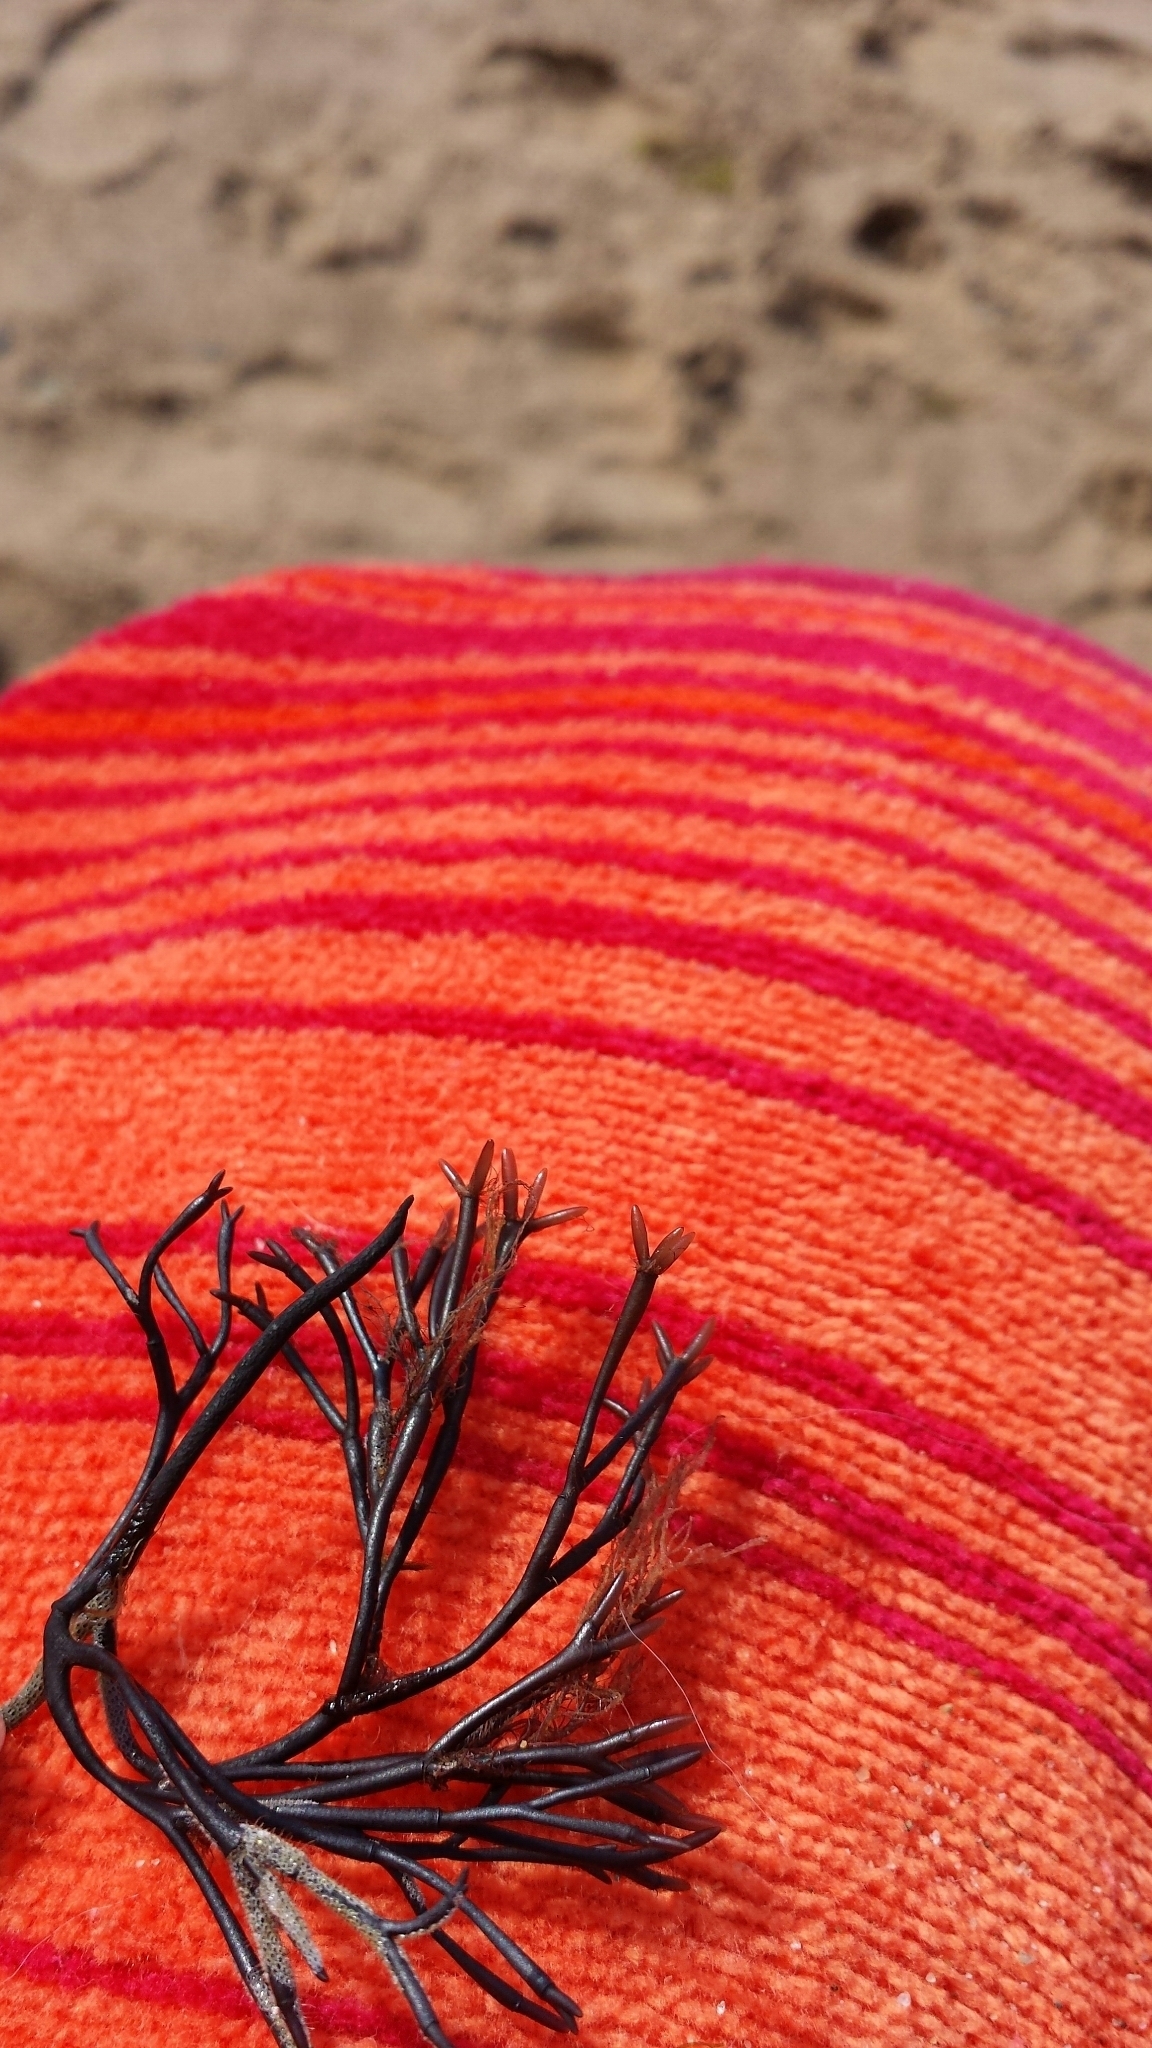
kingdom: Plantae
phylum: Rhodophyta
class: Florideophyceae
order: Gigartinales
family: Polyidaceae
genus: Polyides
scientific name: Polyides rotunda
